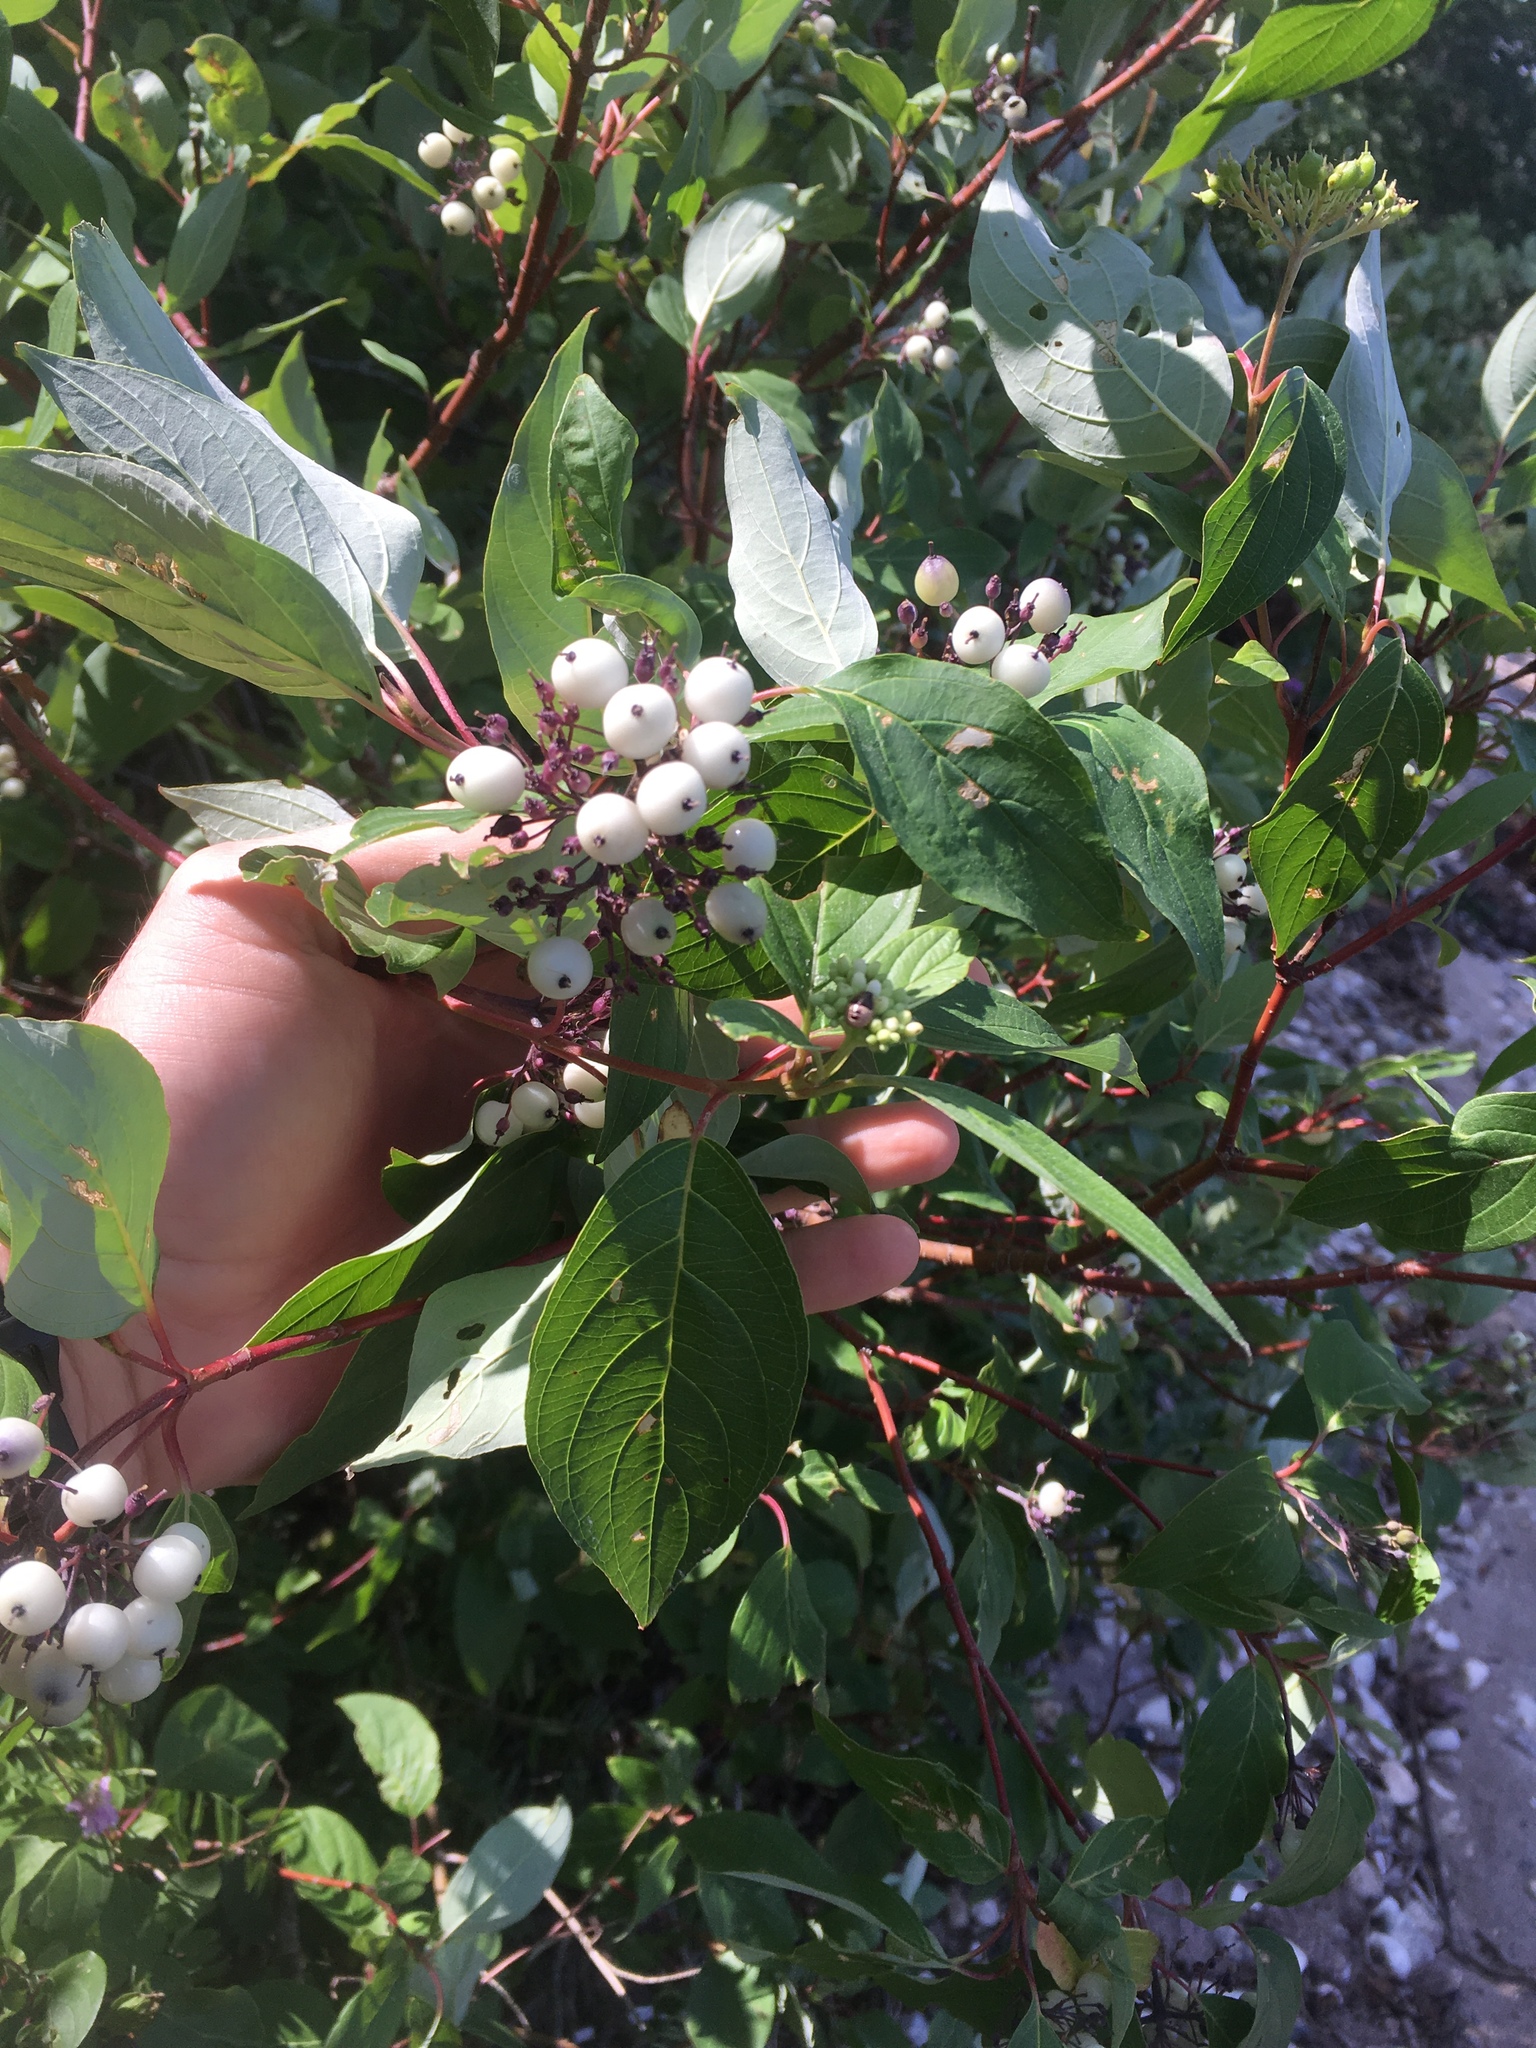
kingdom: Plantae
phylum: Tracheophyta
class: Magnoliopsida
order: Cornales
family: Cornaceae
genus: Cornus
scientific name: Cornus sericea
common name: Red-osier dogwood
